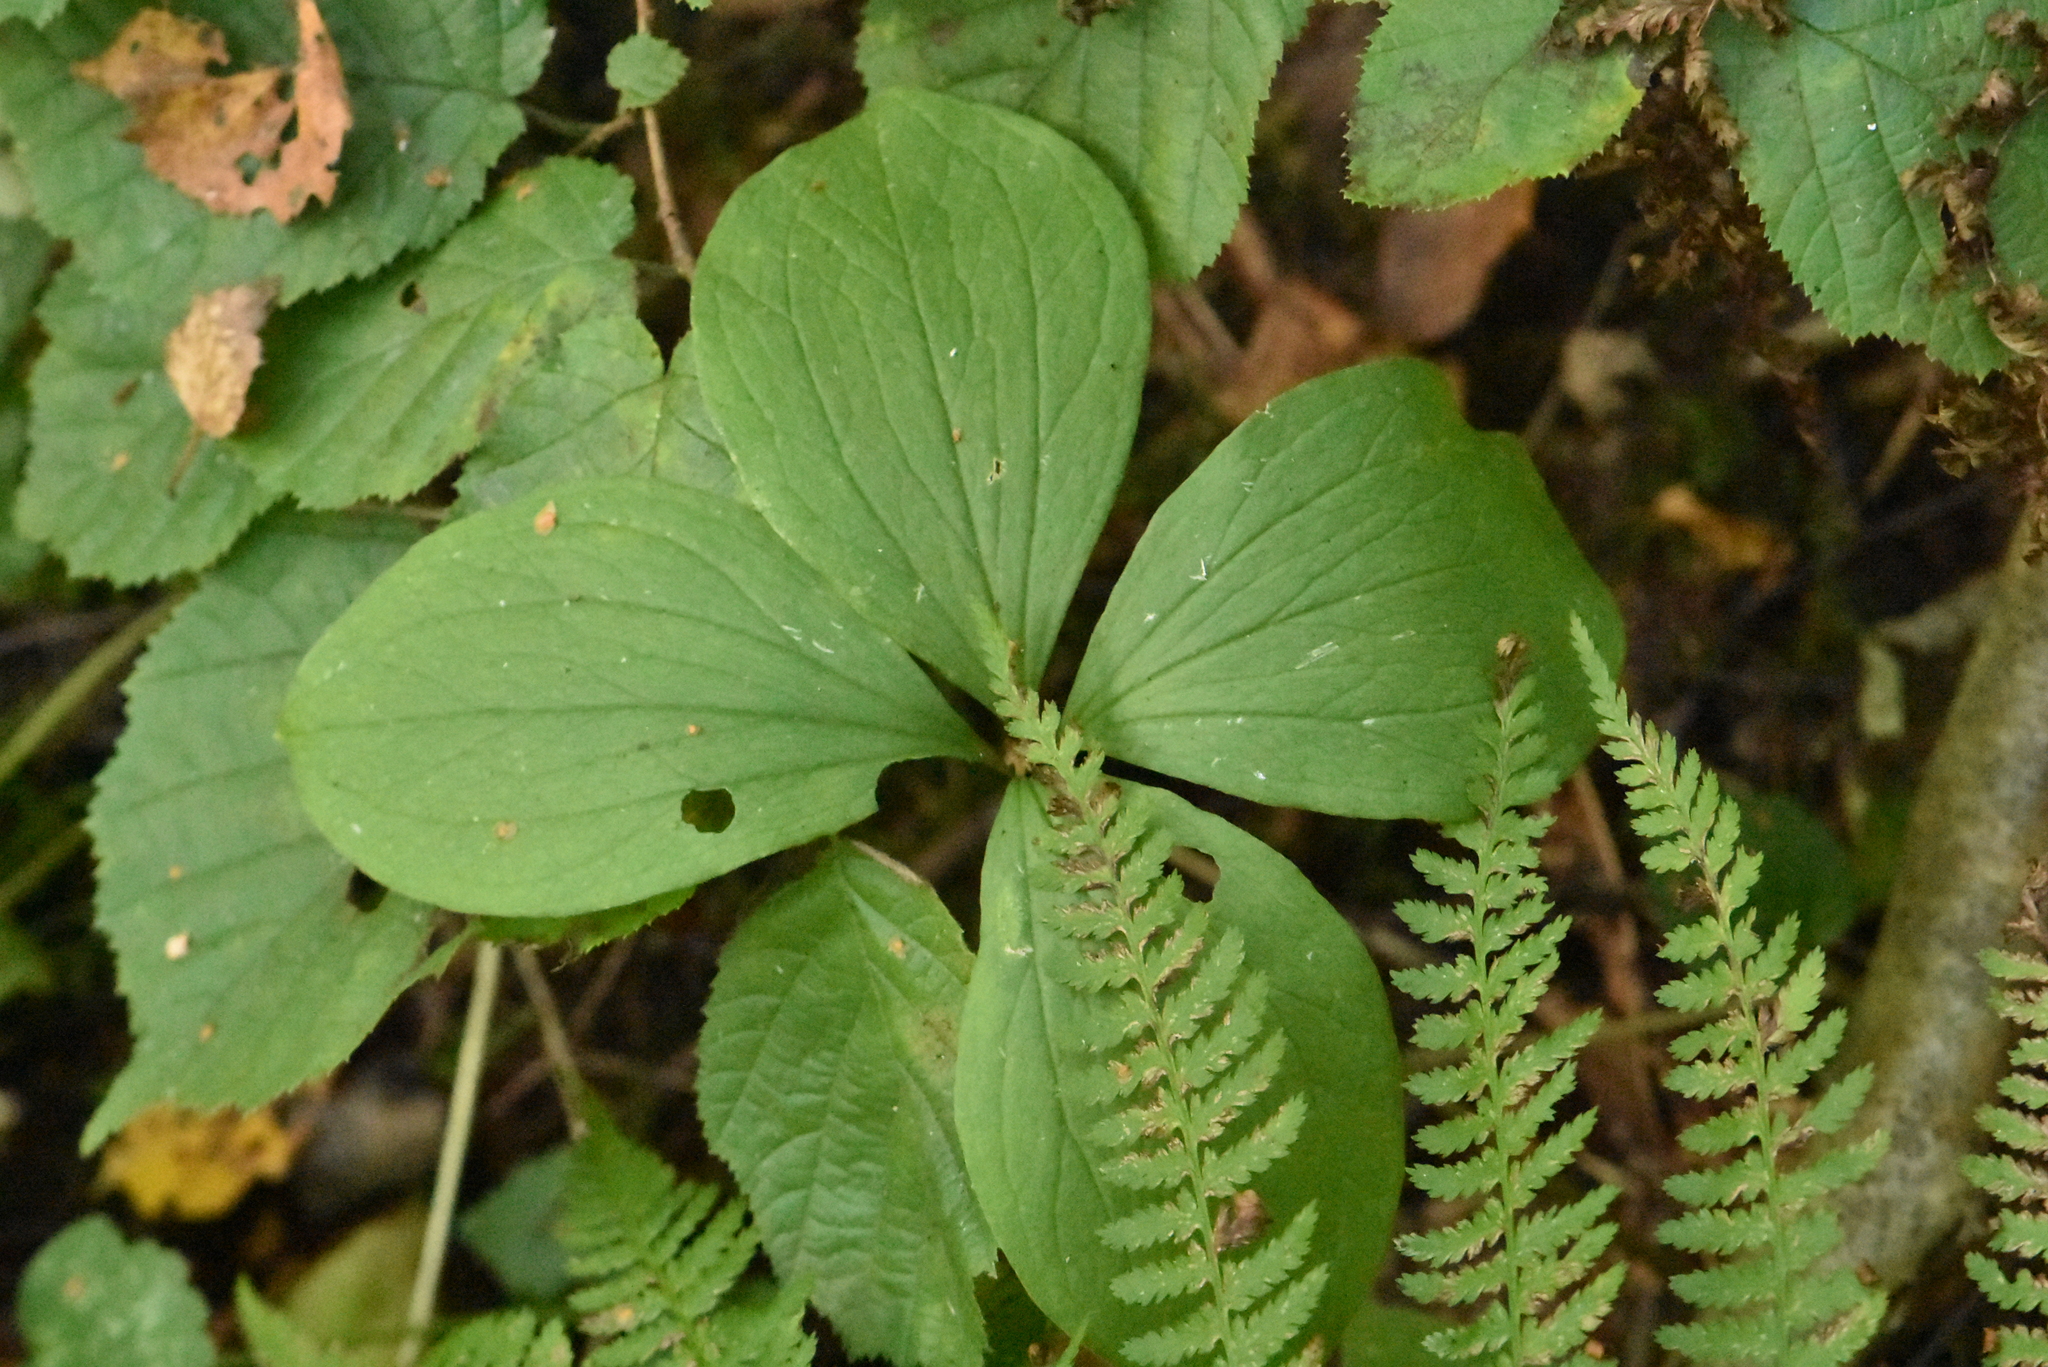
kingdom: Plantae
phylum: Tracheophyta
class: Liliopsida
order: Liliales
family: Melanthiaceae
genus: Paris
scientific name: Paris quadrifolia
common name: Herb-paris
